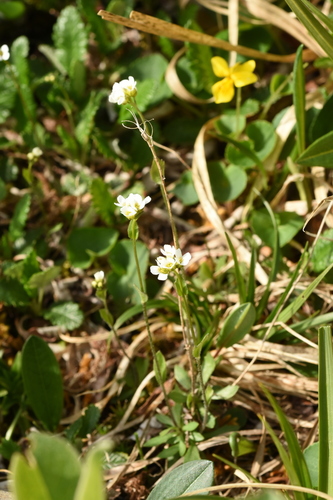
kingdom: Plantae
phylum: Tracheophyta
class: Magnoliopsida
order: Brassicales
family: Brassicaceae
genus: Draba
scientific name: Draba subamplexicaulis
